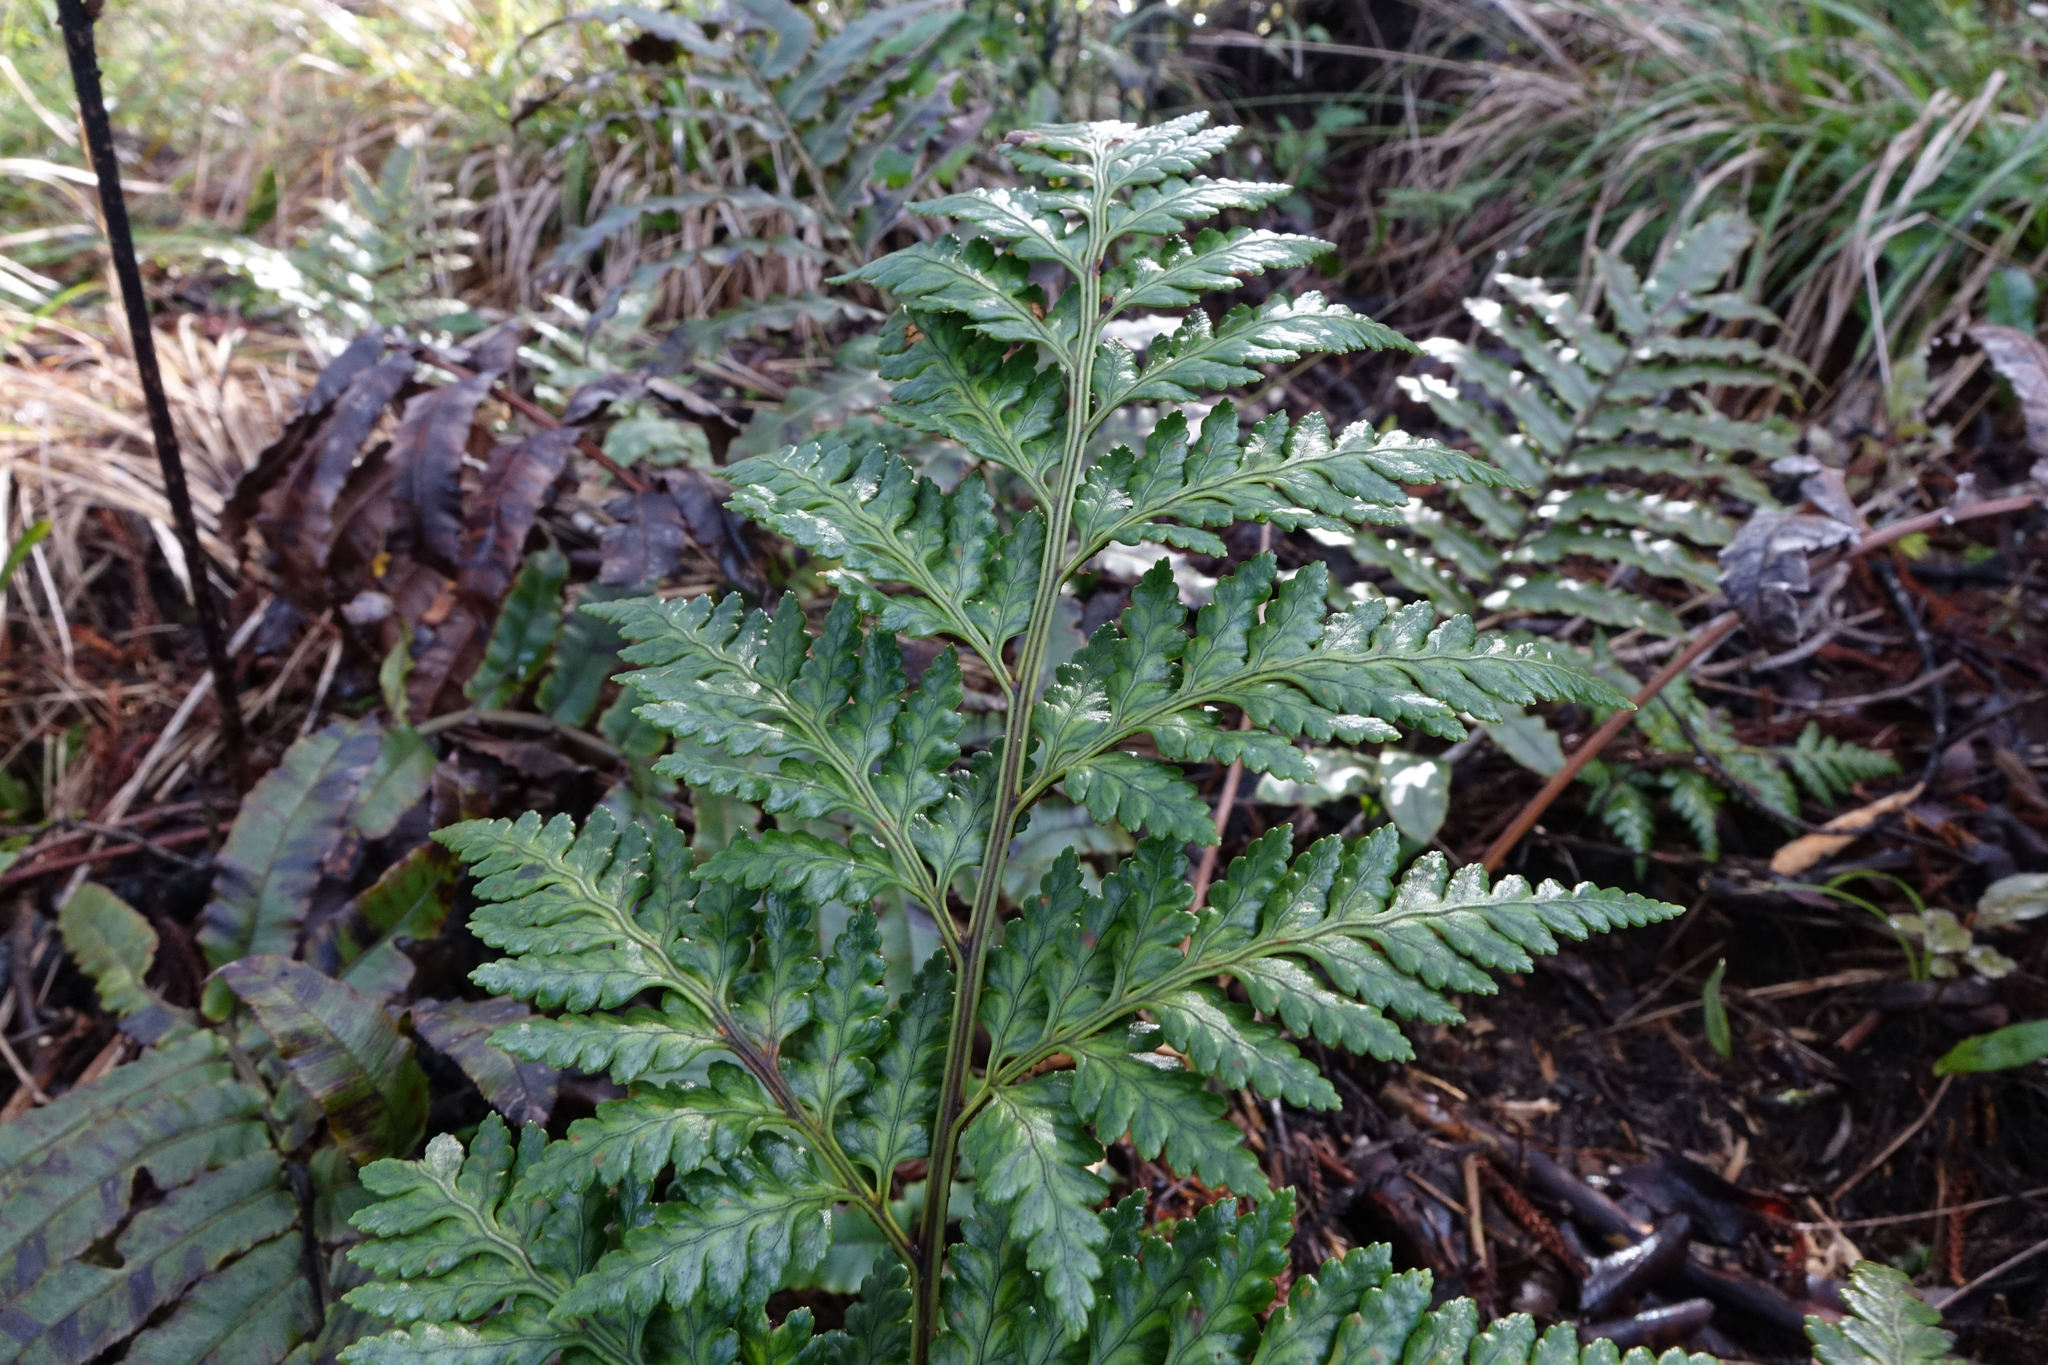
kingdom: Plantae
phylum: Tracheophyta
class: Polypodiopsida
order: Polypodiales
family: Dryopteridaceae
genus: Rumohra
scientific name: Rumohra adiantiformis
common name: Leather fern
